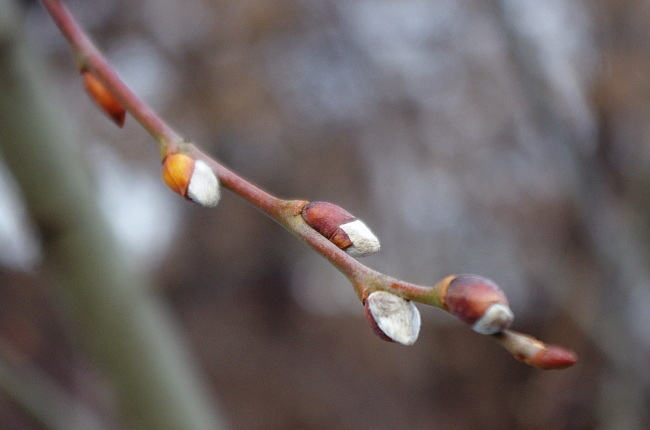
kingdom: Plantae
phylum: Tracheophyta
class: Magnoliopsida
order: Malpighiales
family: Salicaceae
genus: Salix
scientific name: Salix caprea
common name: Goat willow
